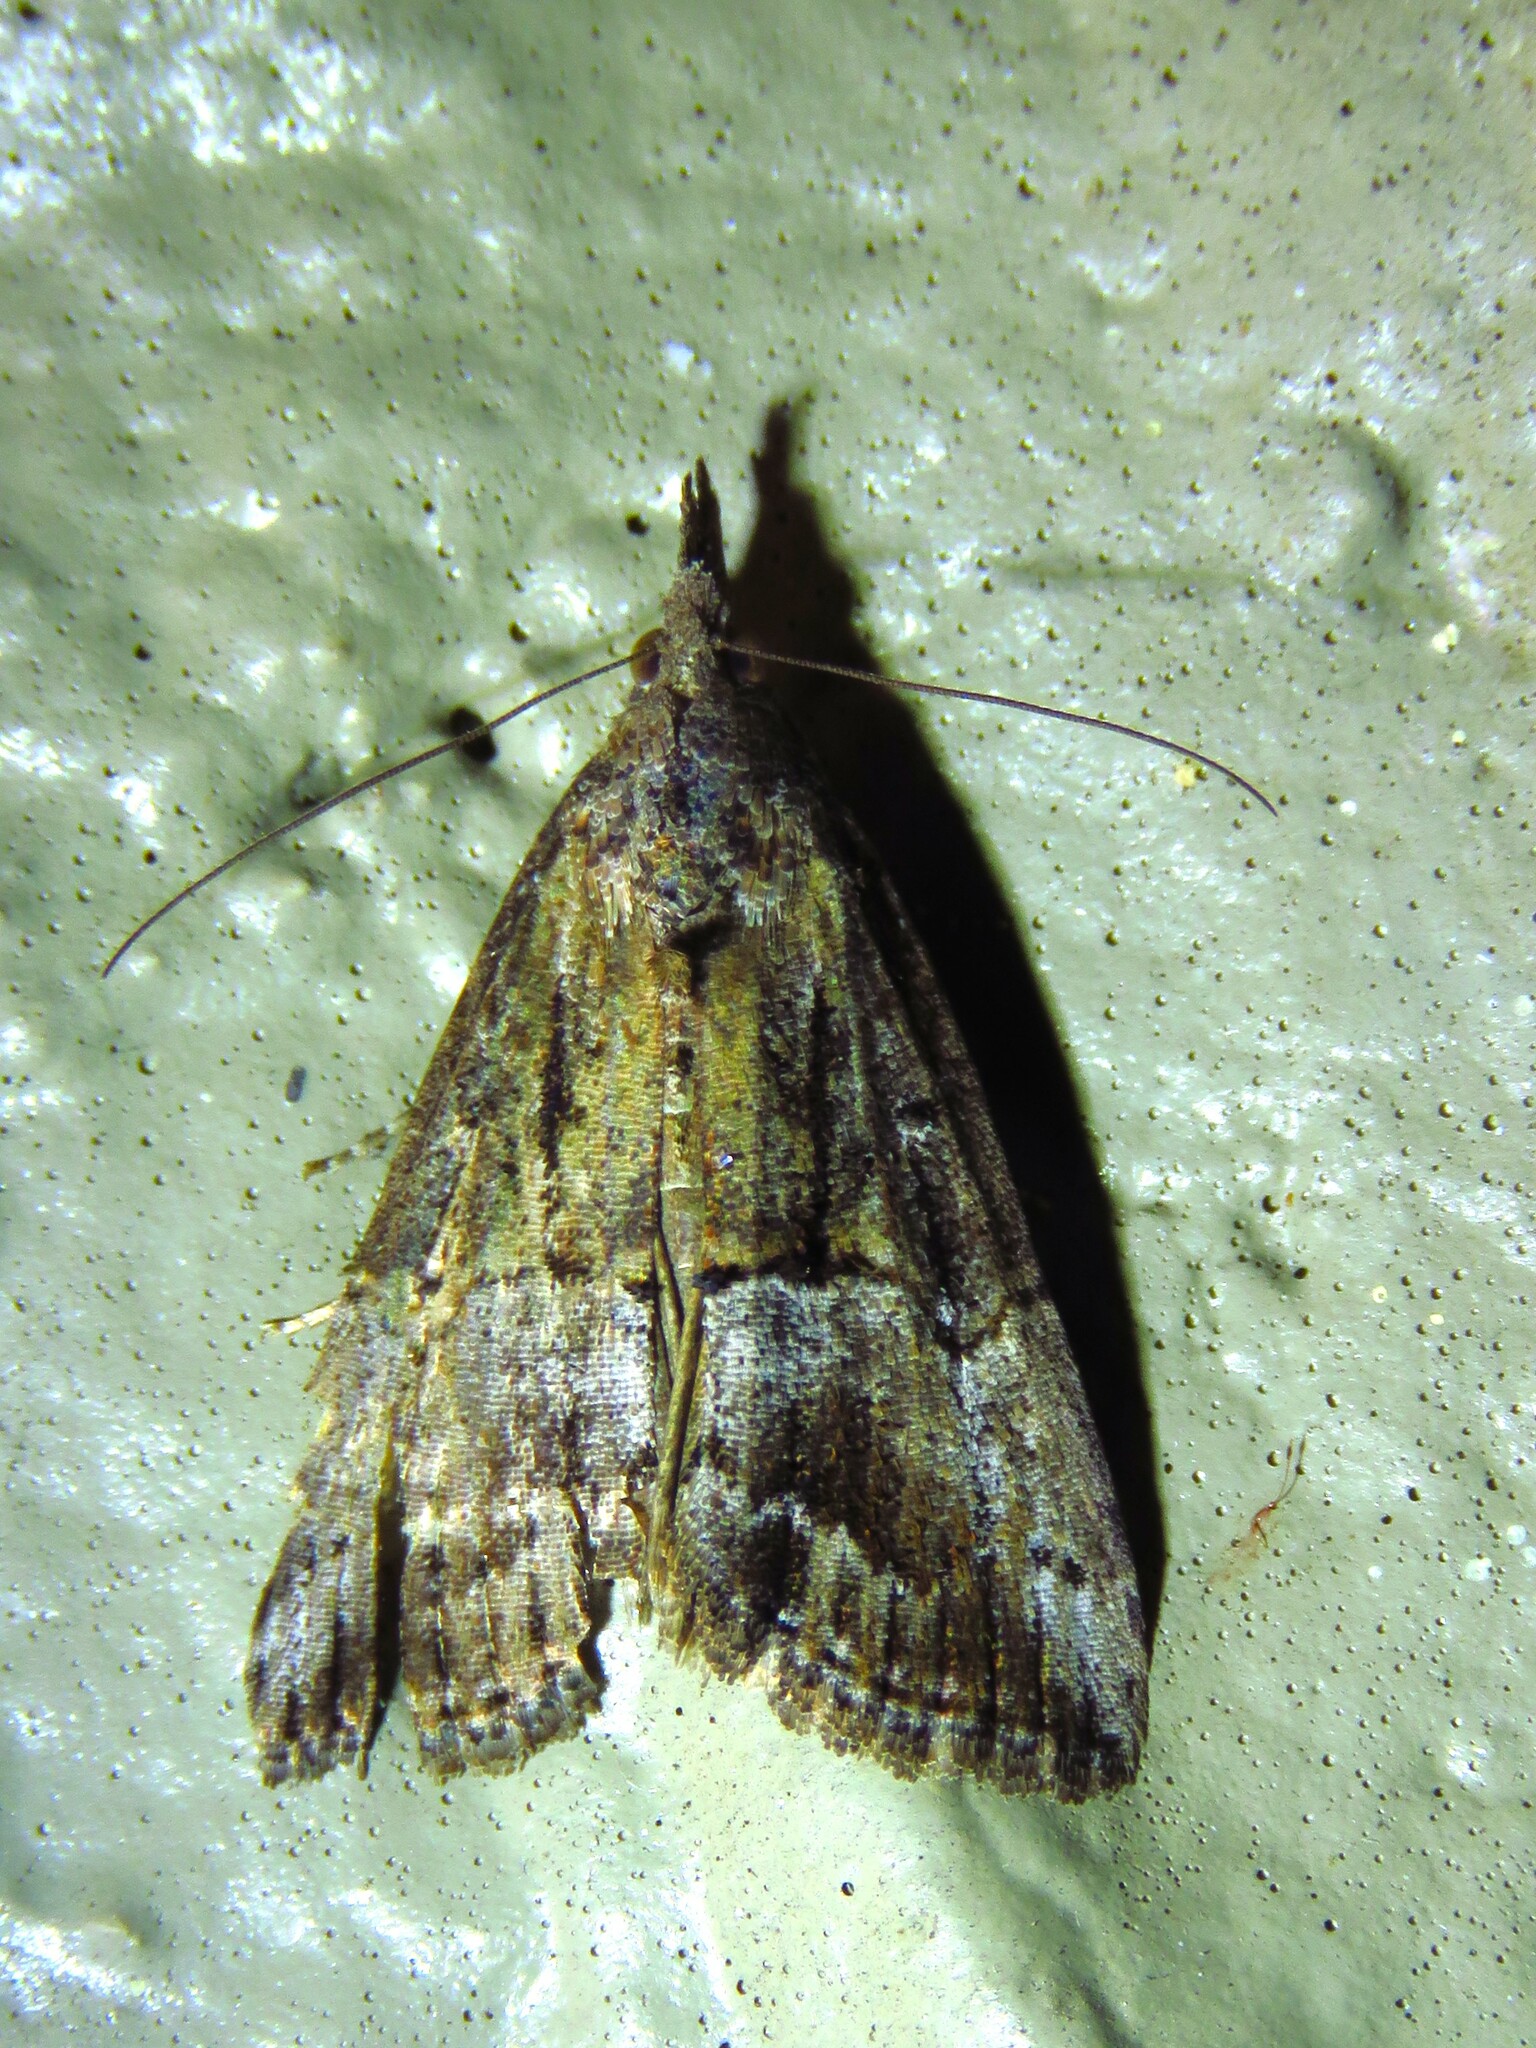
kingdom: Animalia
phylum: Arthropoda
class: Insecta
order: Lepidoptera
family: Erebidae
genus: Hypena
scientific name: Hypena scabra
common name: Green cloverworm
